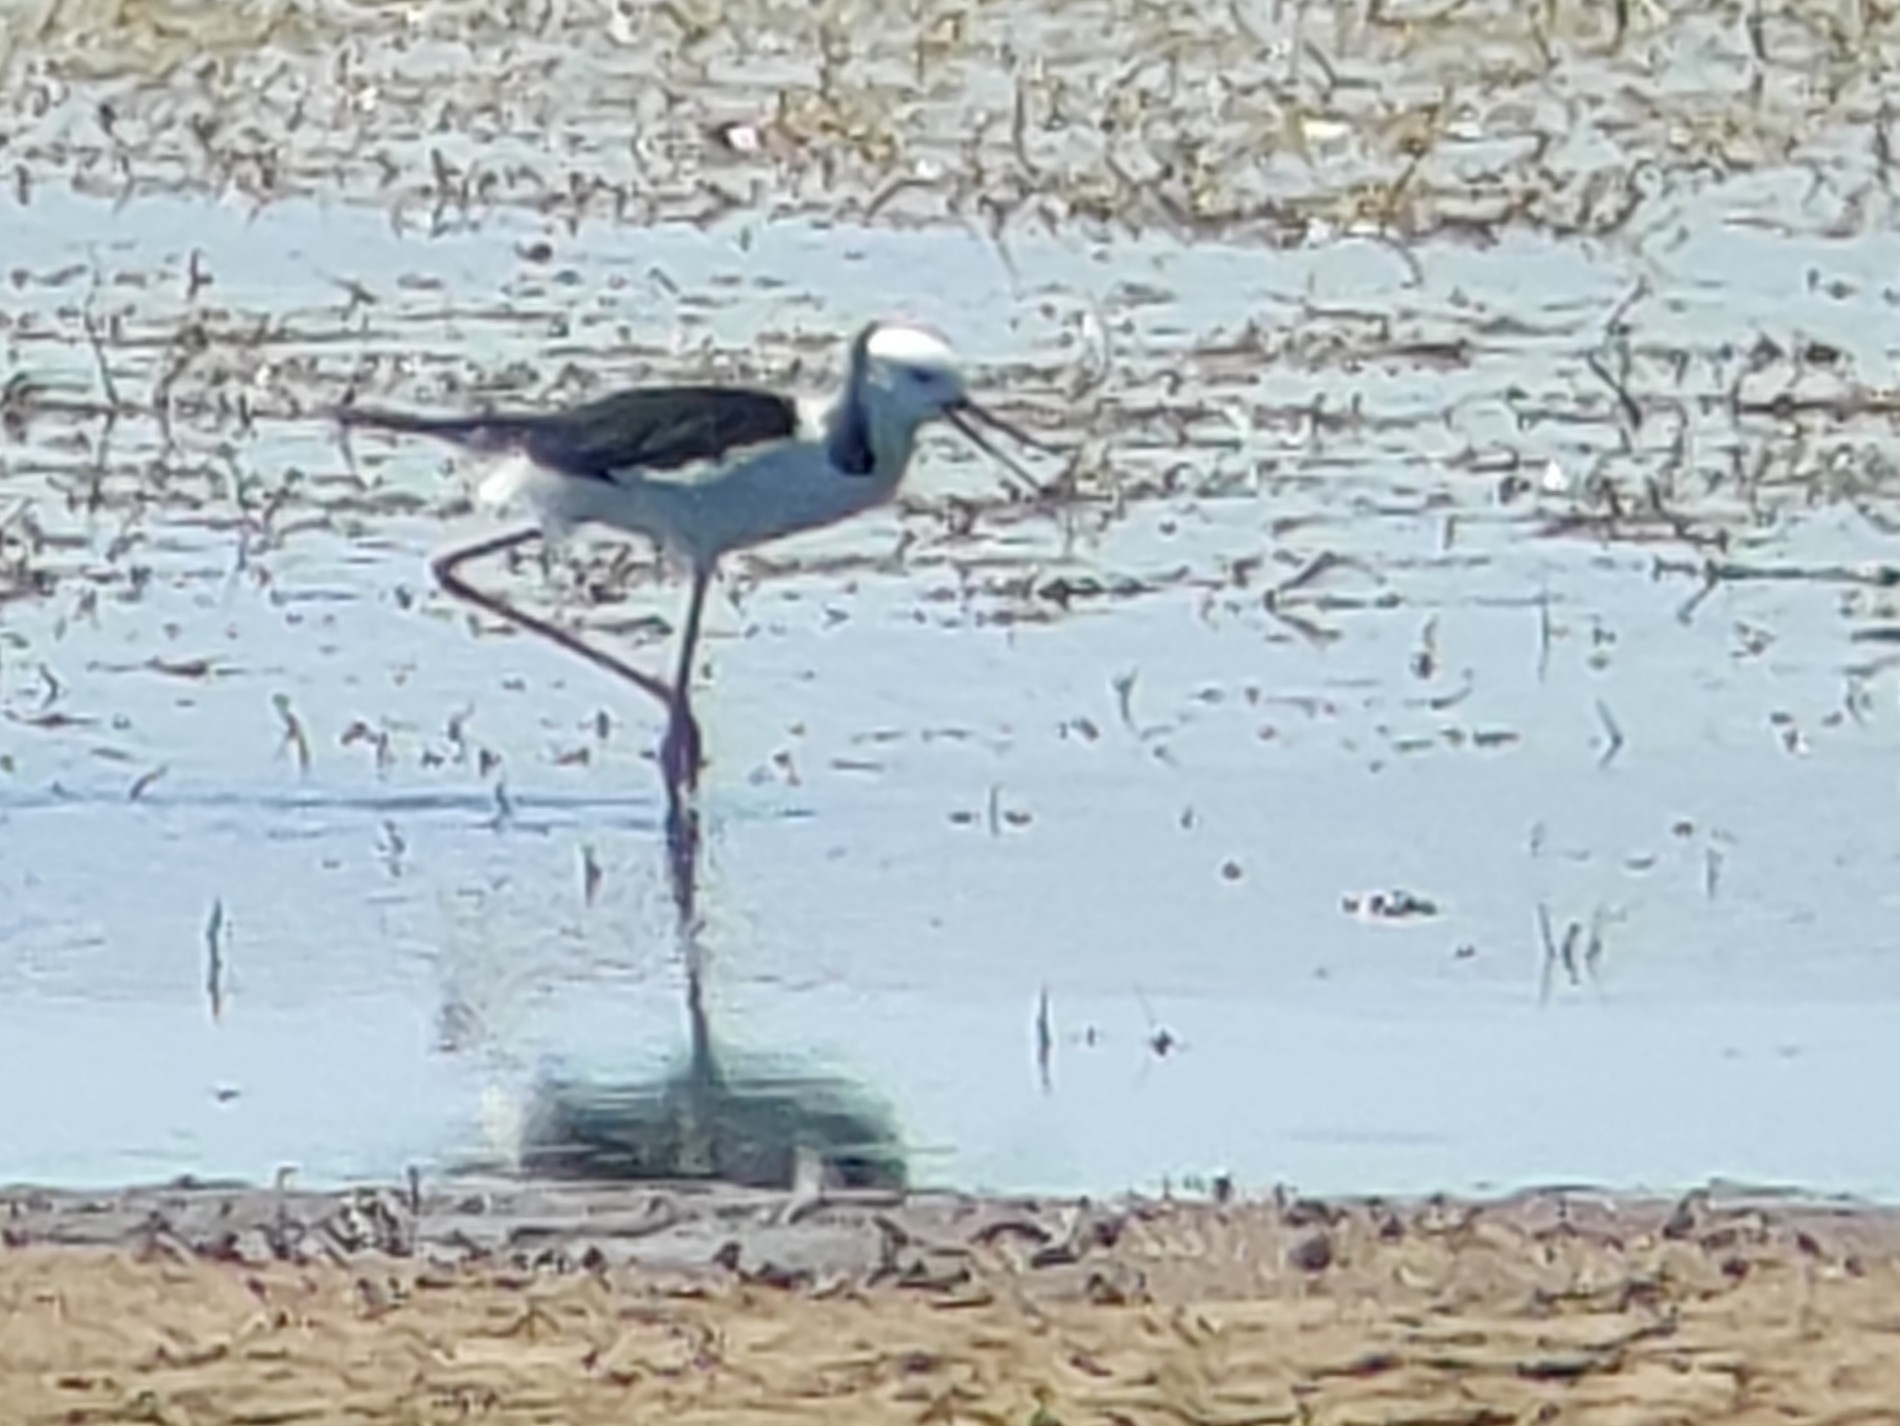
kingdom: Animalia
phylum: Chordata
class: Aves
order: Charadriiformes
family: Recurvirostridae
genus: Himantopus
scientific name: Himantopus leucocephalus
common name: White-headed stilt
